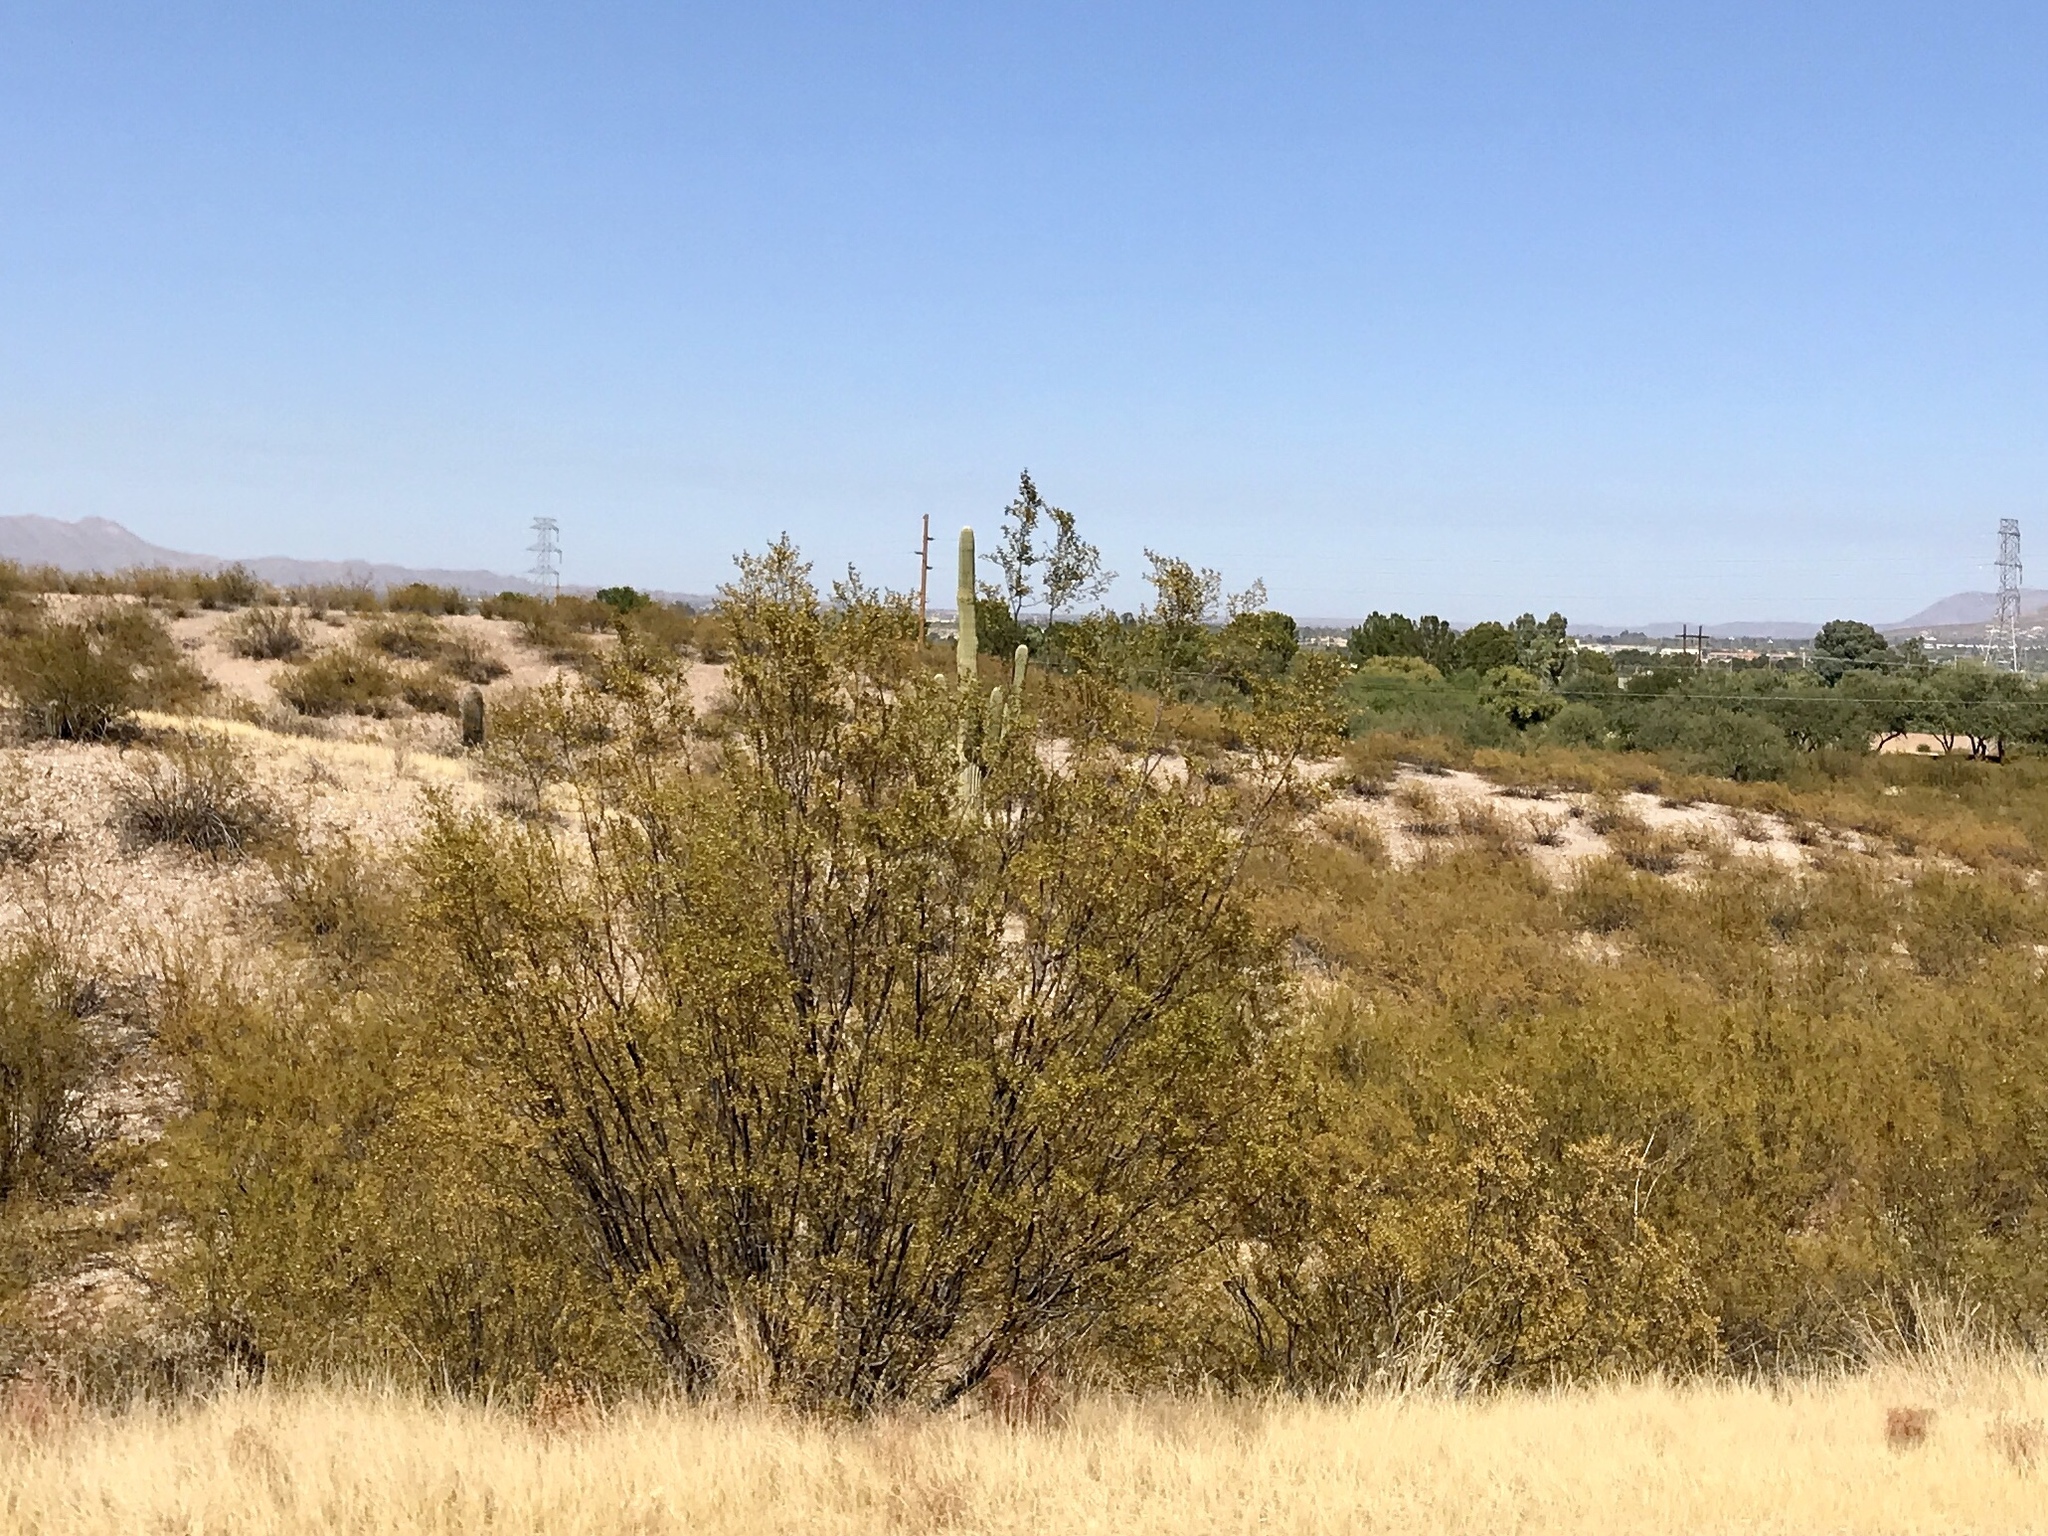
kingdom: Plantae
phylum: Tracheophyta
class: Magnoliopsida
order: Zygophyllales
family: Zygophyllaceae
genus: Larrea
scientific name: Larrea tridentata
